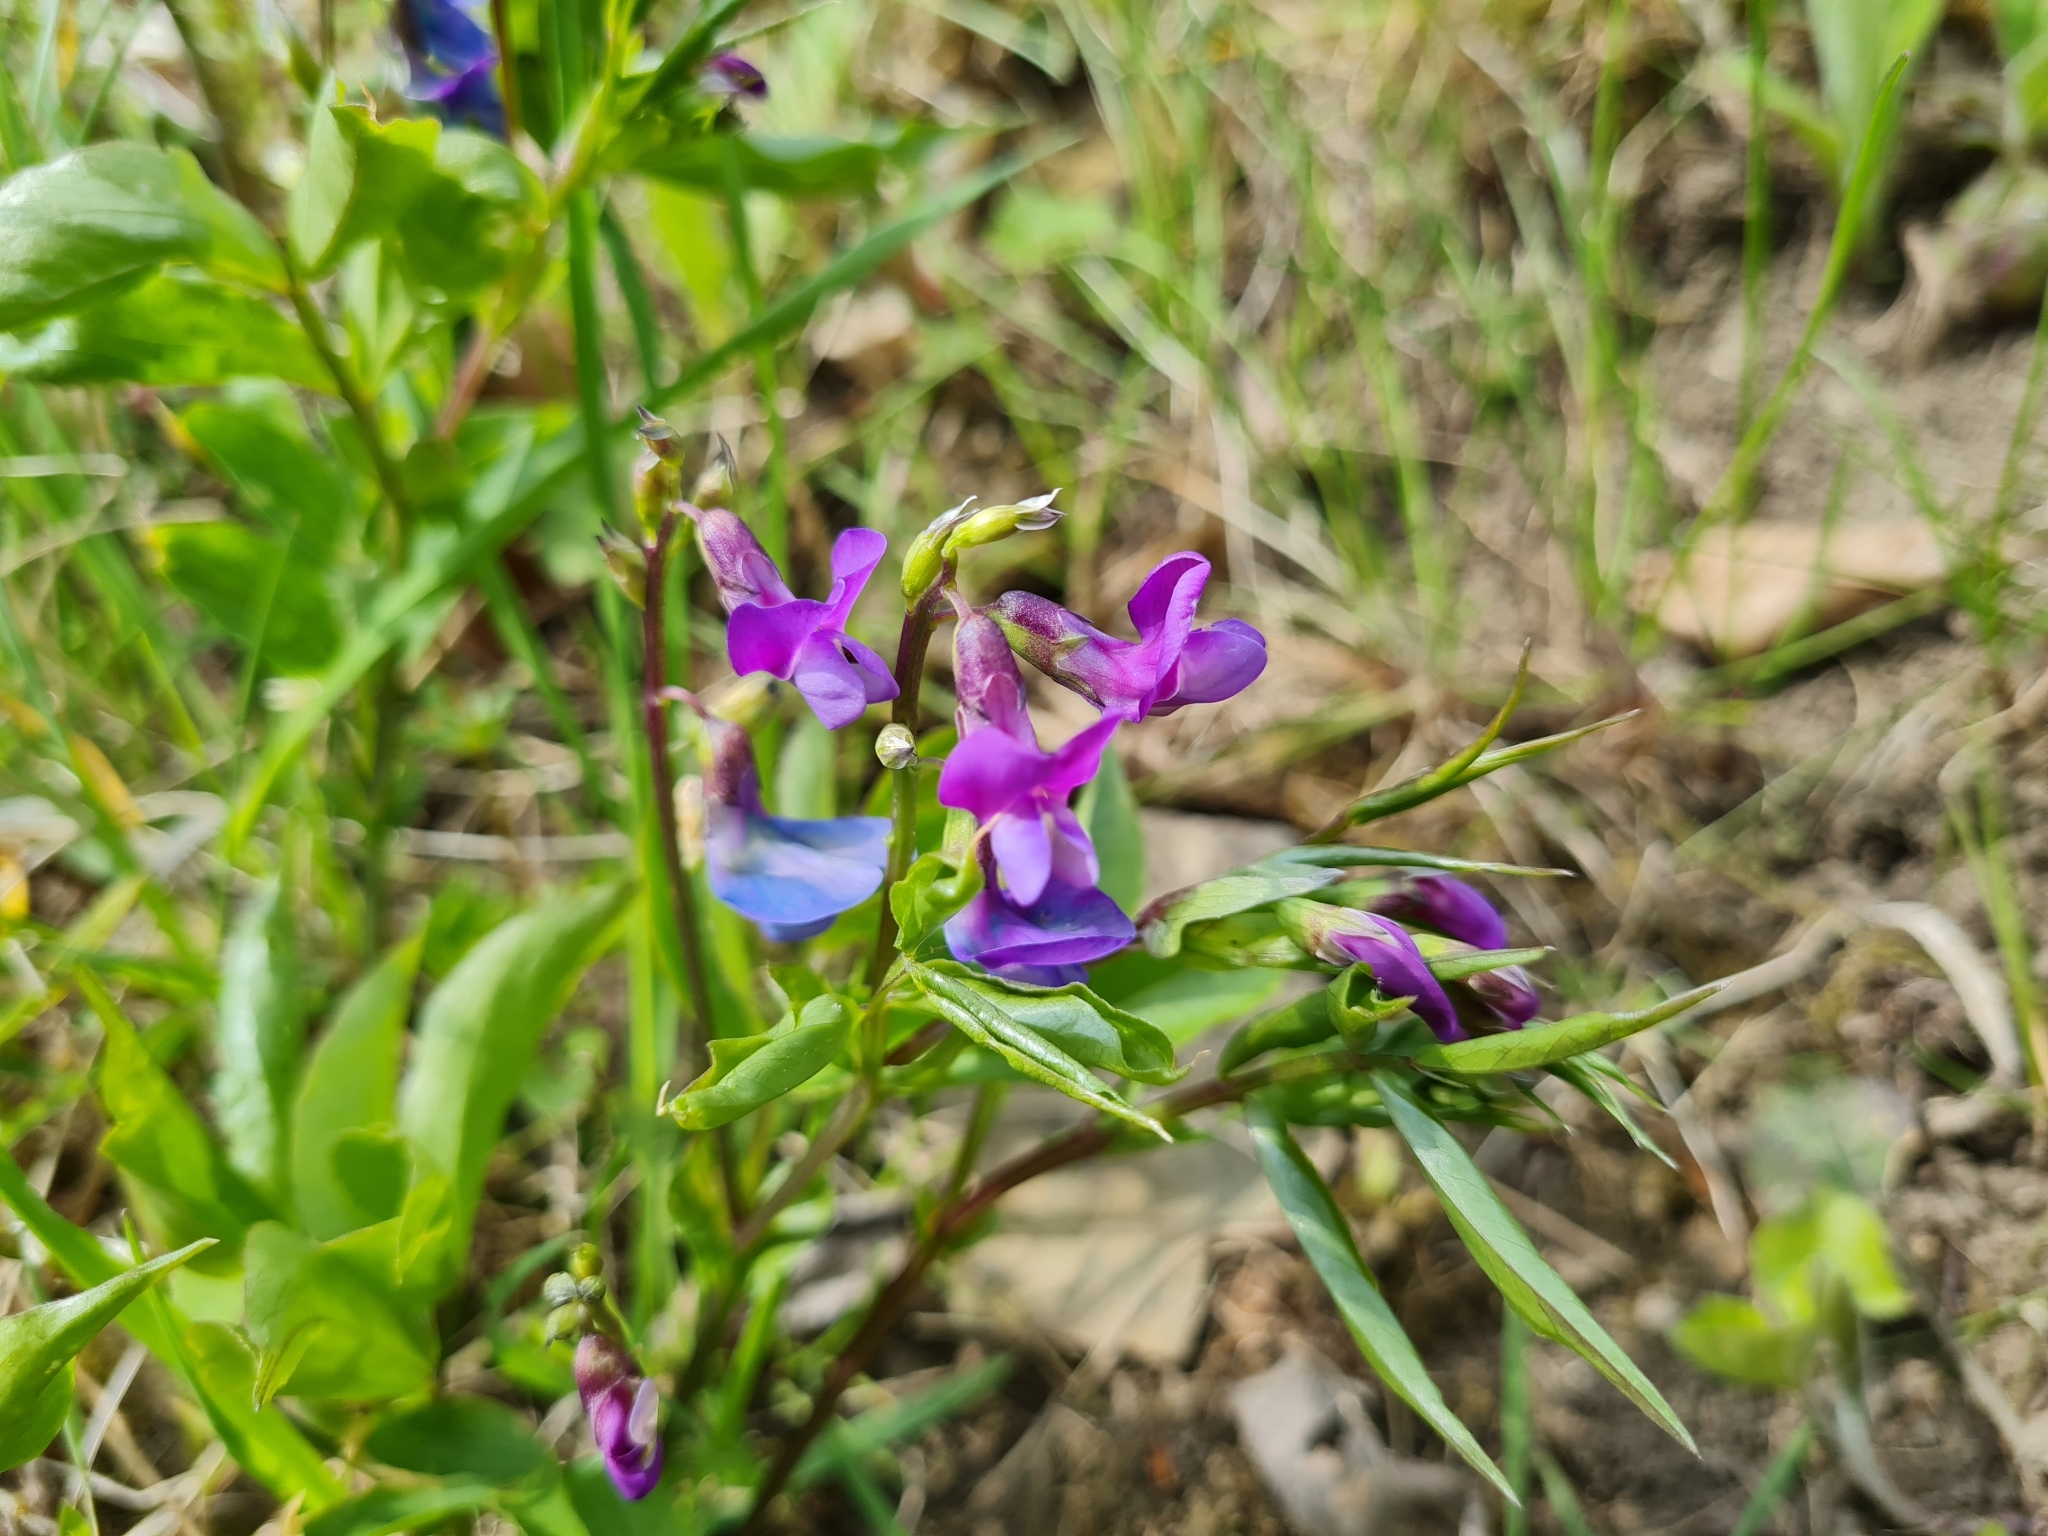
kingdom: Plantae
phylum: Tracheophyta
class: Magnoliopsida
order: Fabales
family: Fabaceae
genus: Lathyrus
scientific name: Lathyrus vernus
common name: Spring pea
